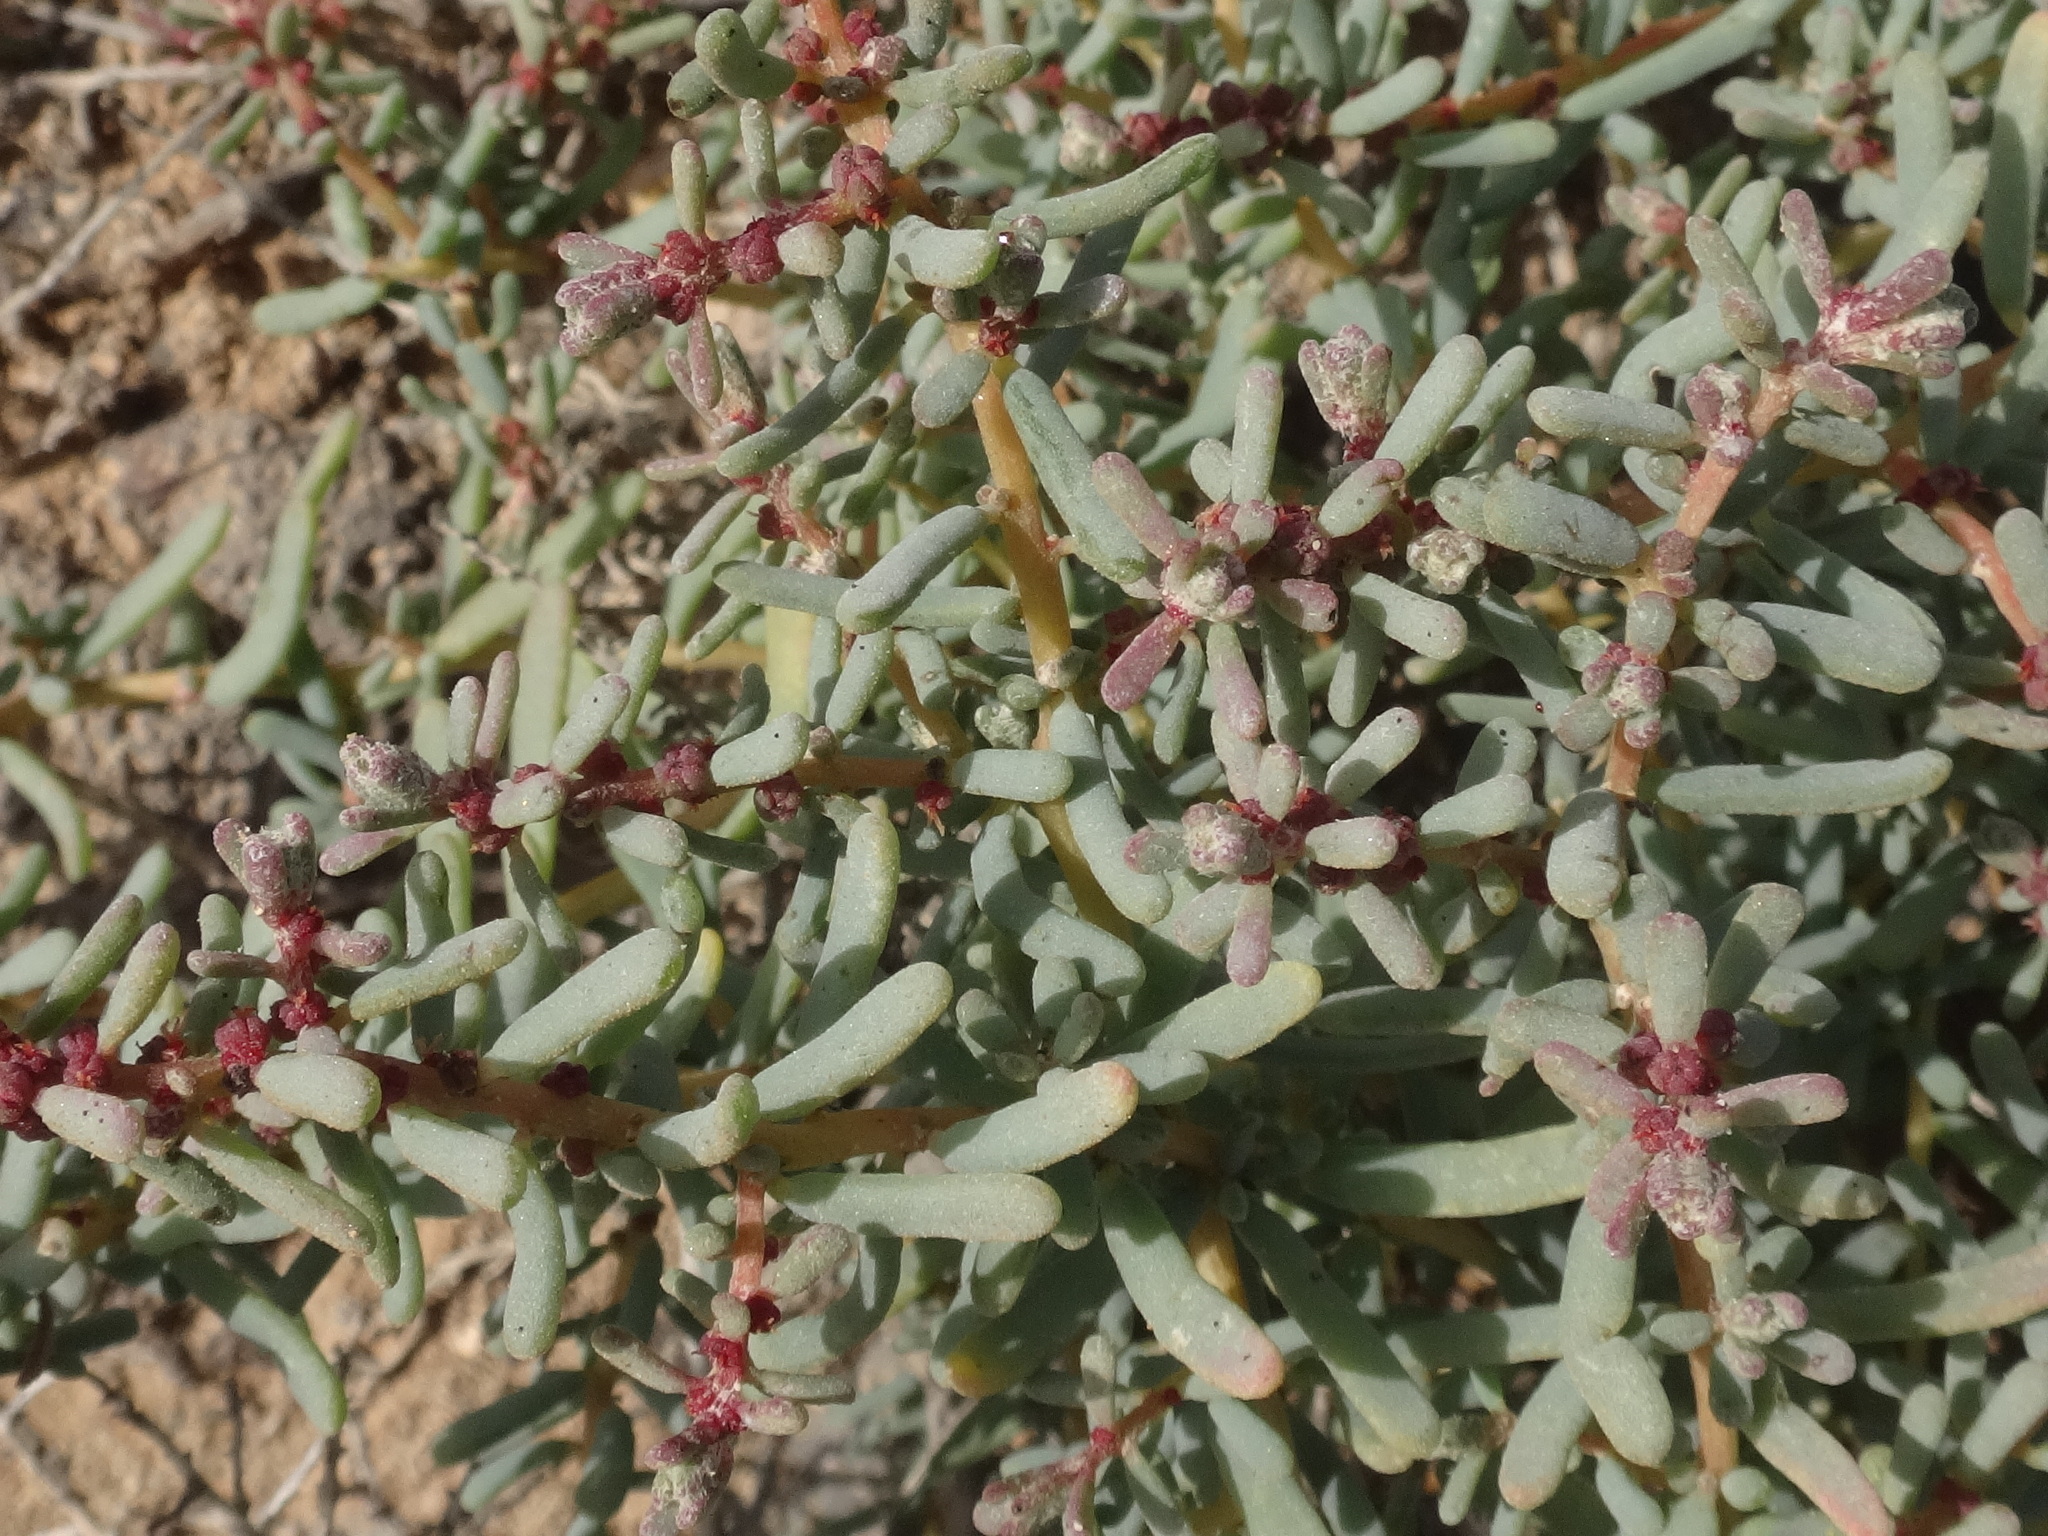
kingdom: Plantae
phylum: Tracheophyta
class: Magnoliopsida
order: Caryophyllales
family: Amaranthaceae
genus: Suaeda
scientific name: Suaeda vermiculata
